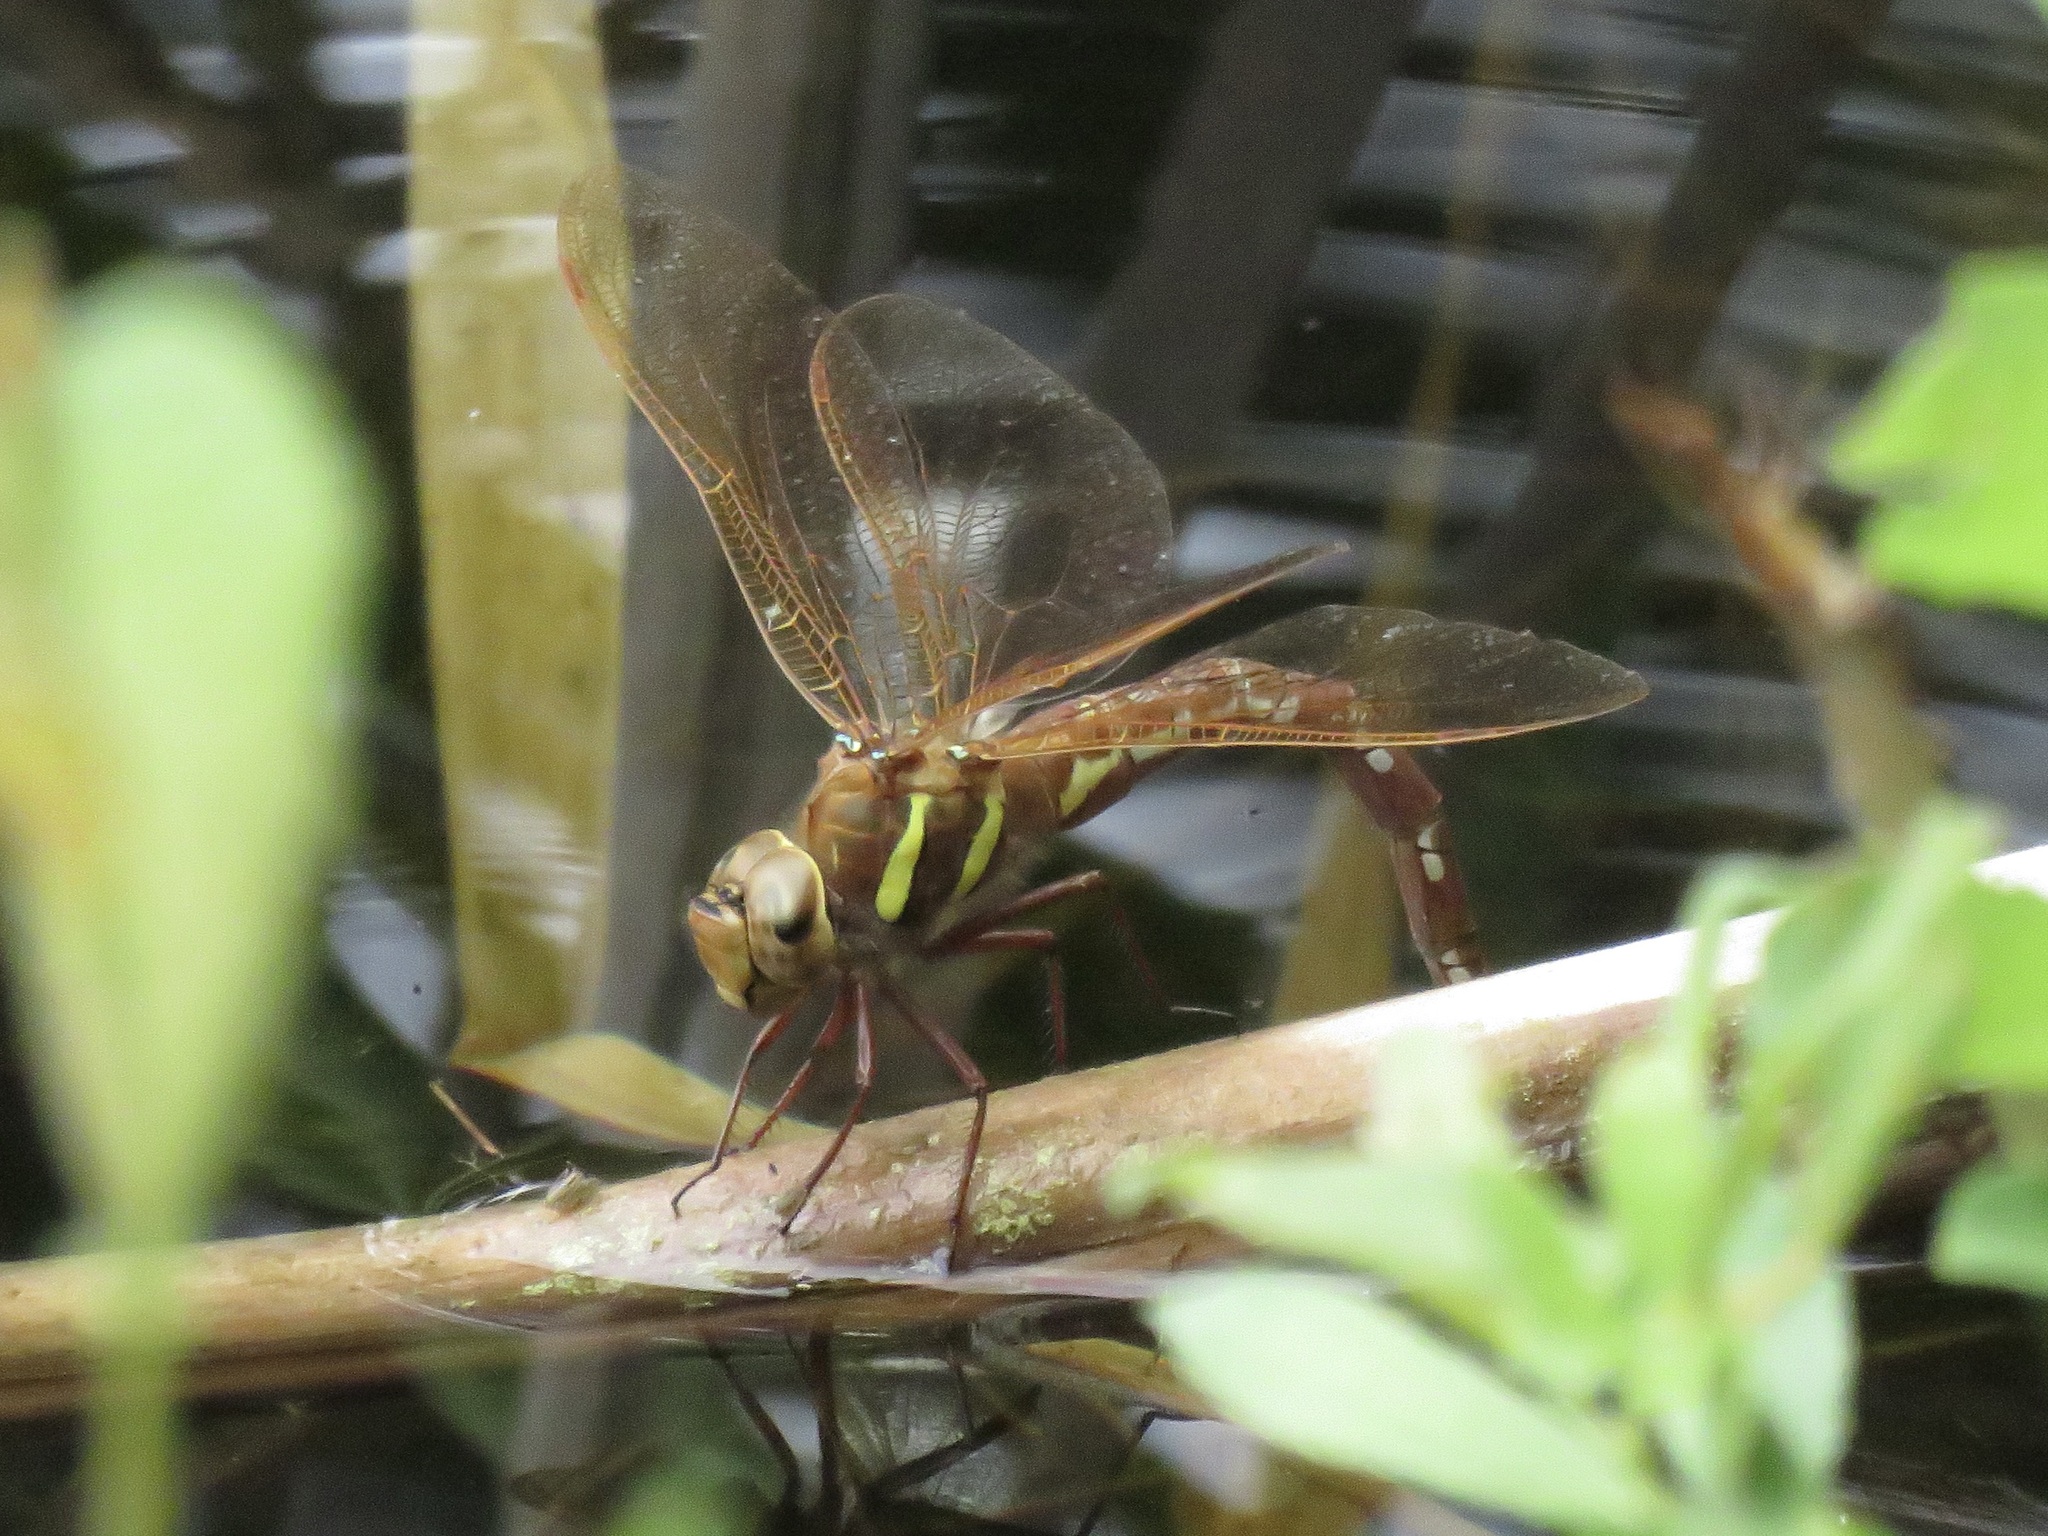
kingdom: Animalia
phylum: Arthropoda
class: Insecta
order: Odonata
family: Aeshnidae
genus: Aeshna
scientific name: Aeshna grandis
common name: Brown hawker
